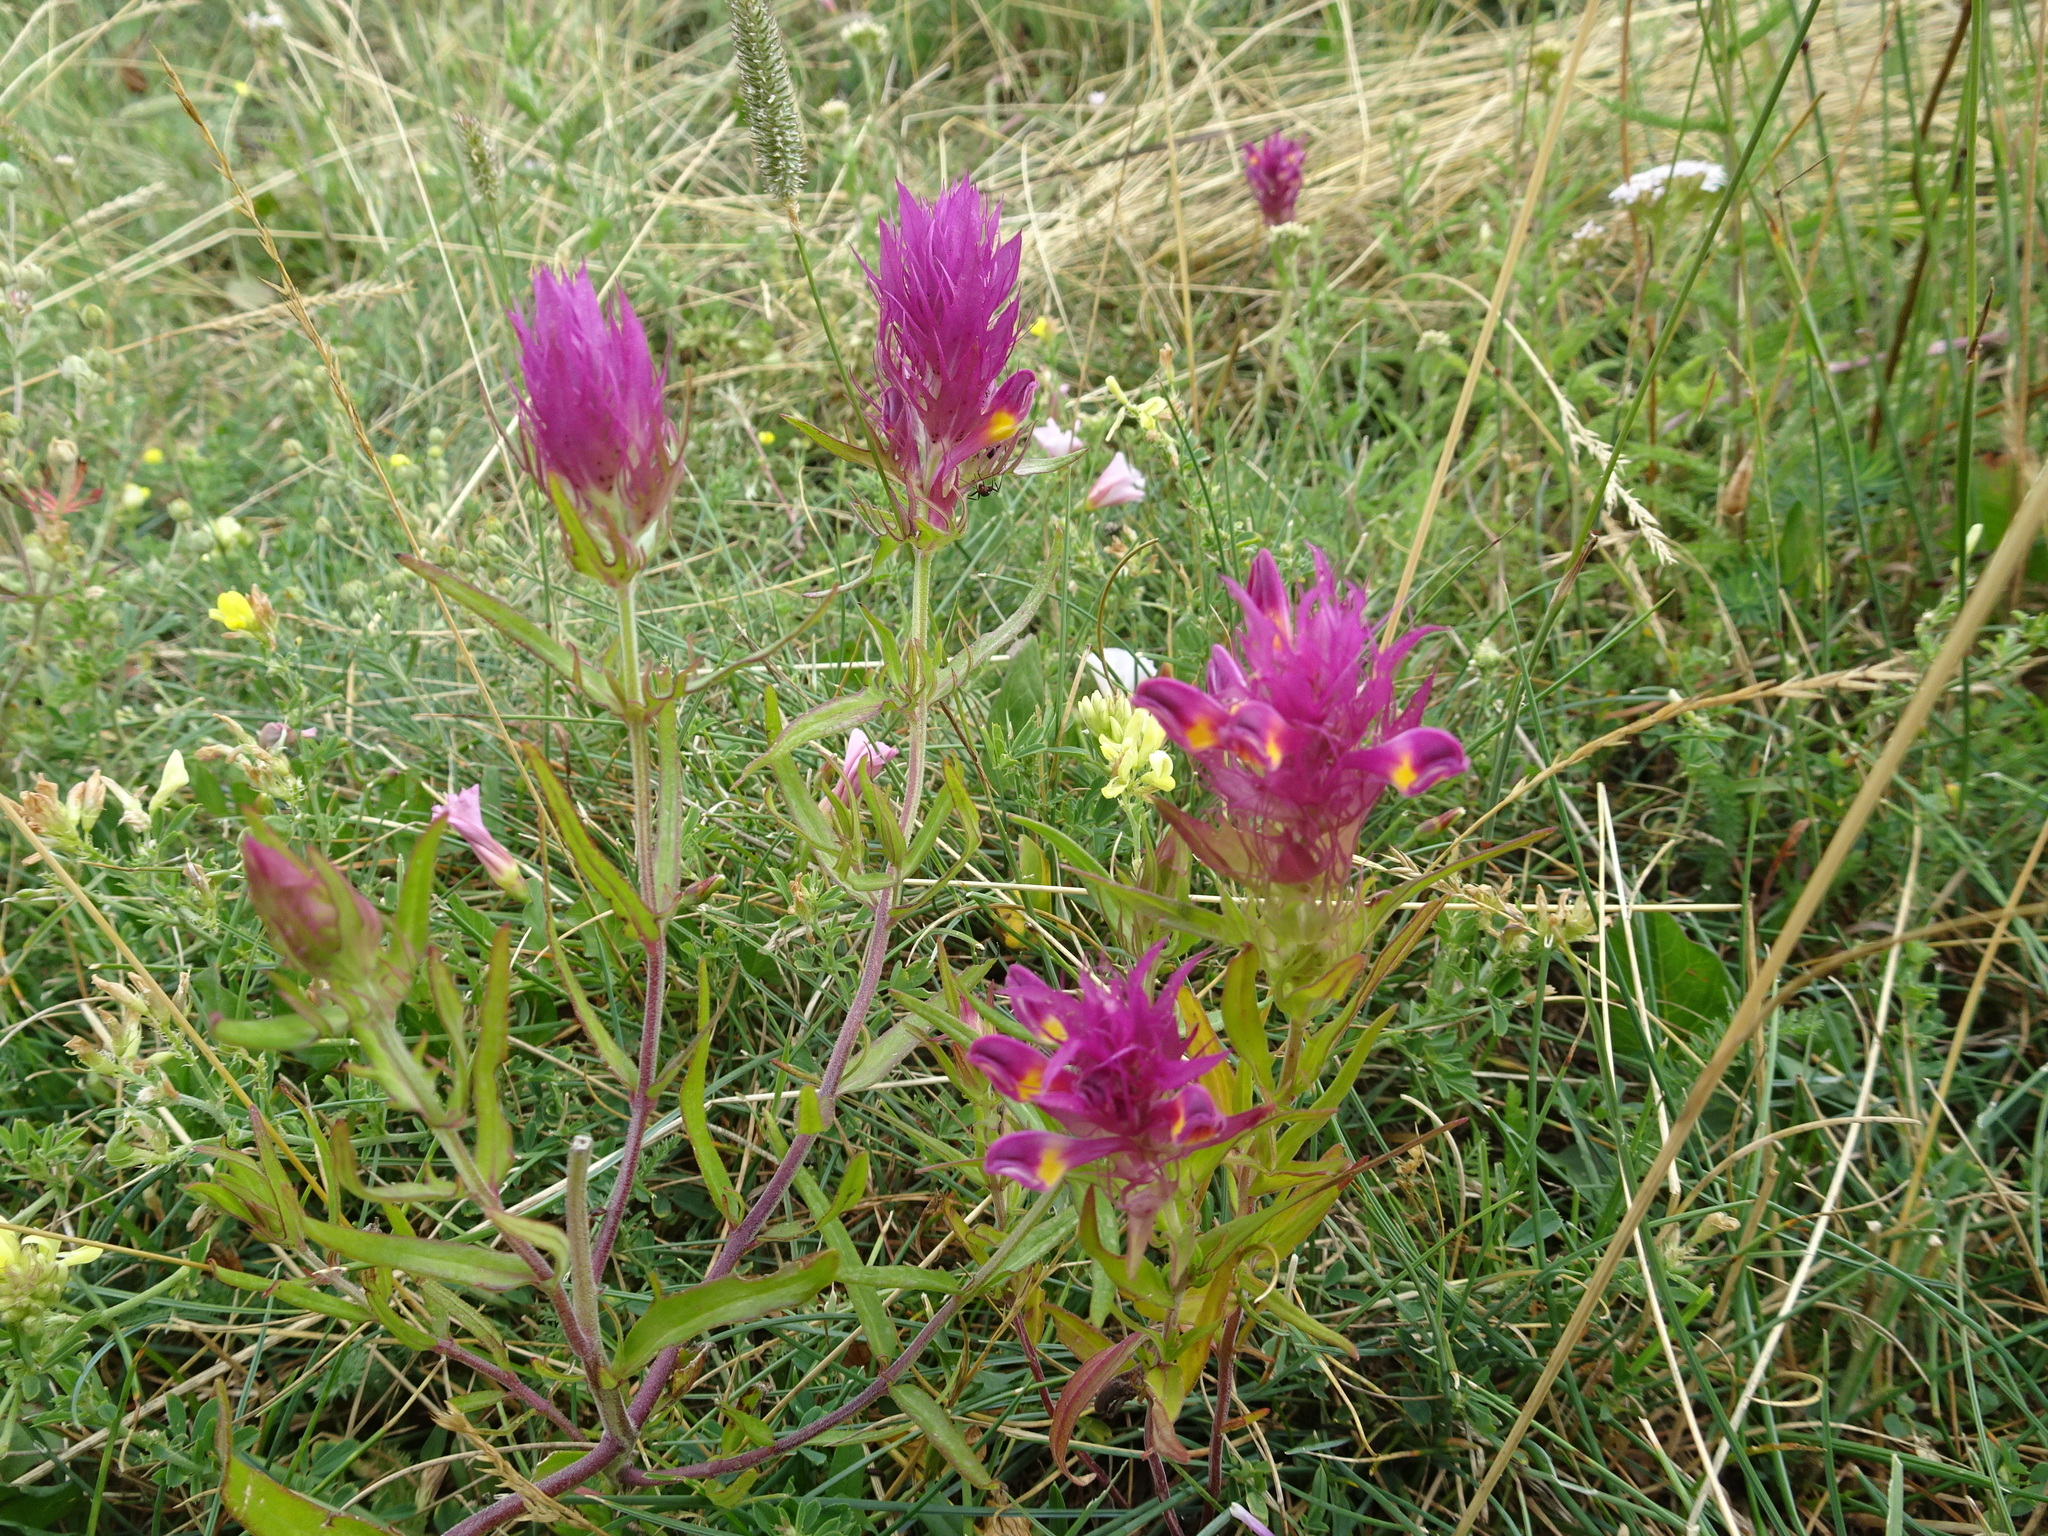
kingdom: Plantae
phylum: Tracheophyta
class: Magnoliopsida
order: Lamiales
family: Orobanchaceae
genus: Melampyrum
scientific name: Melampyrum arvense
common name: Field cow-wheat
